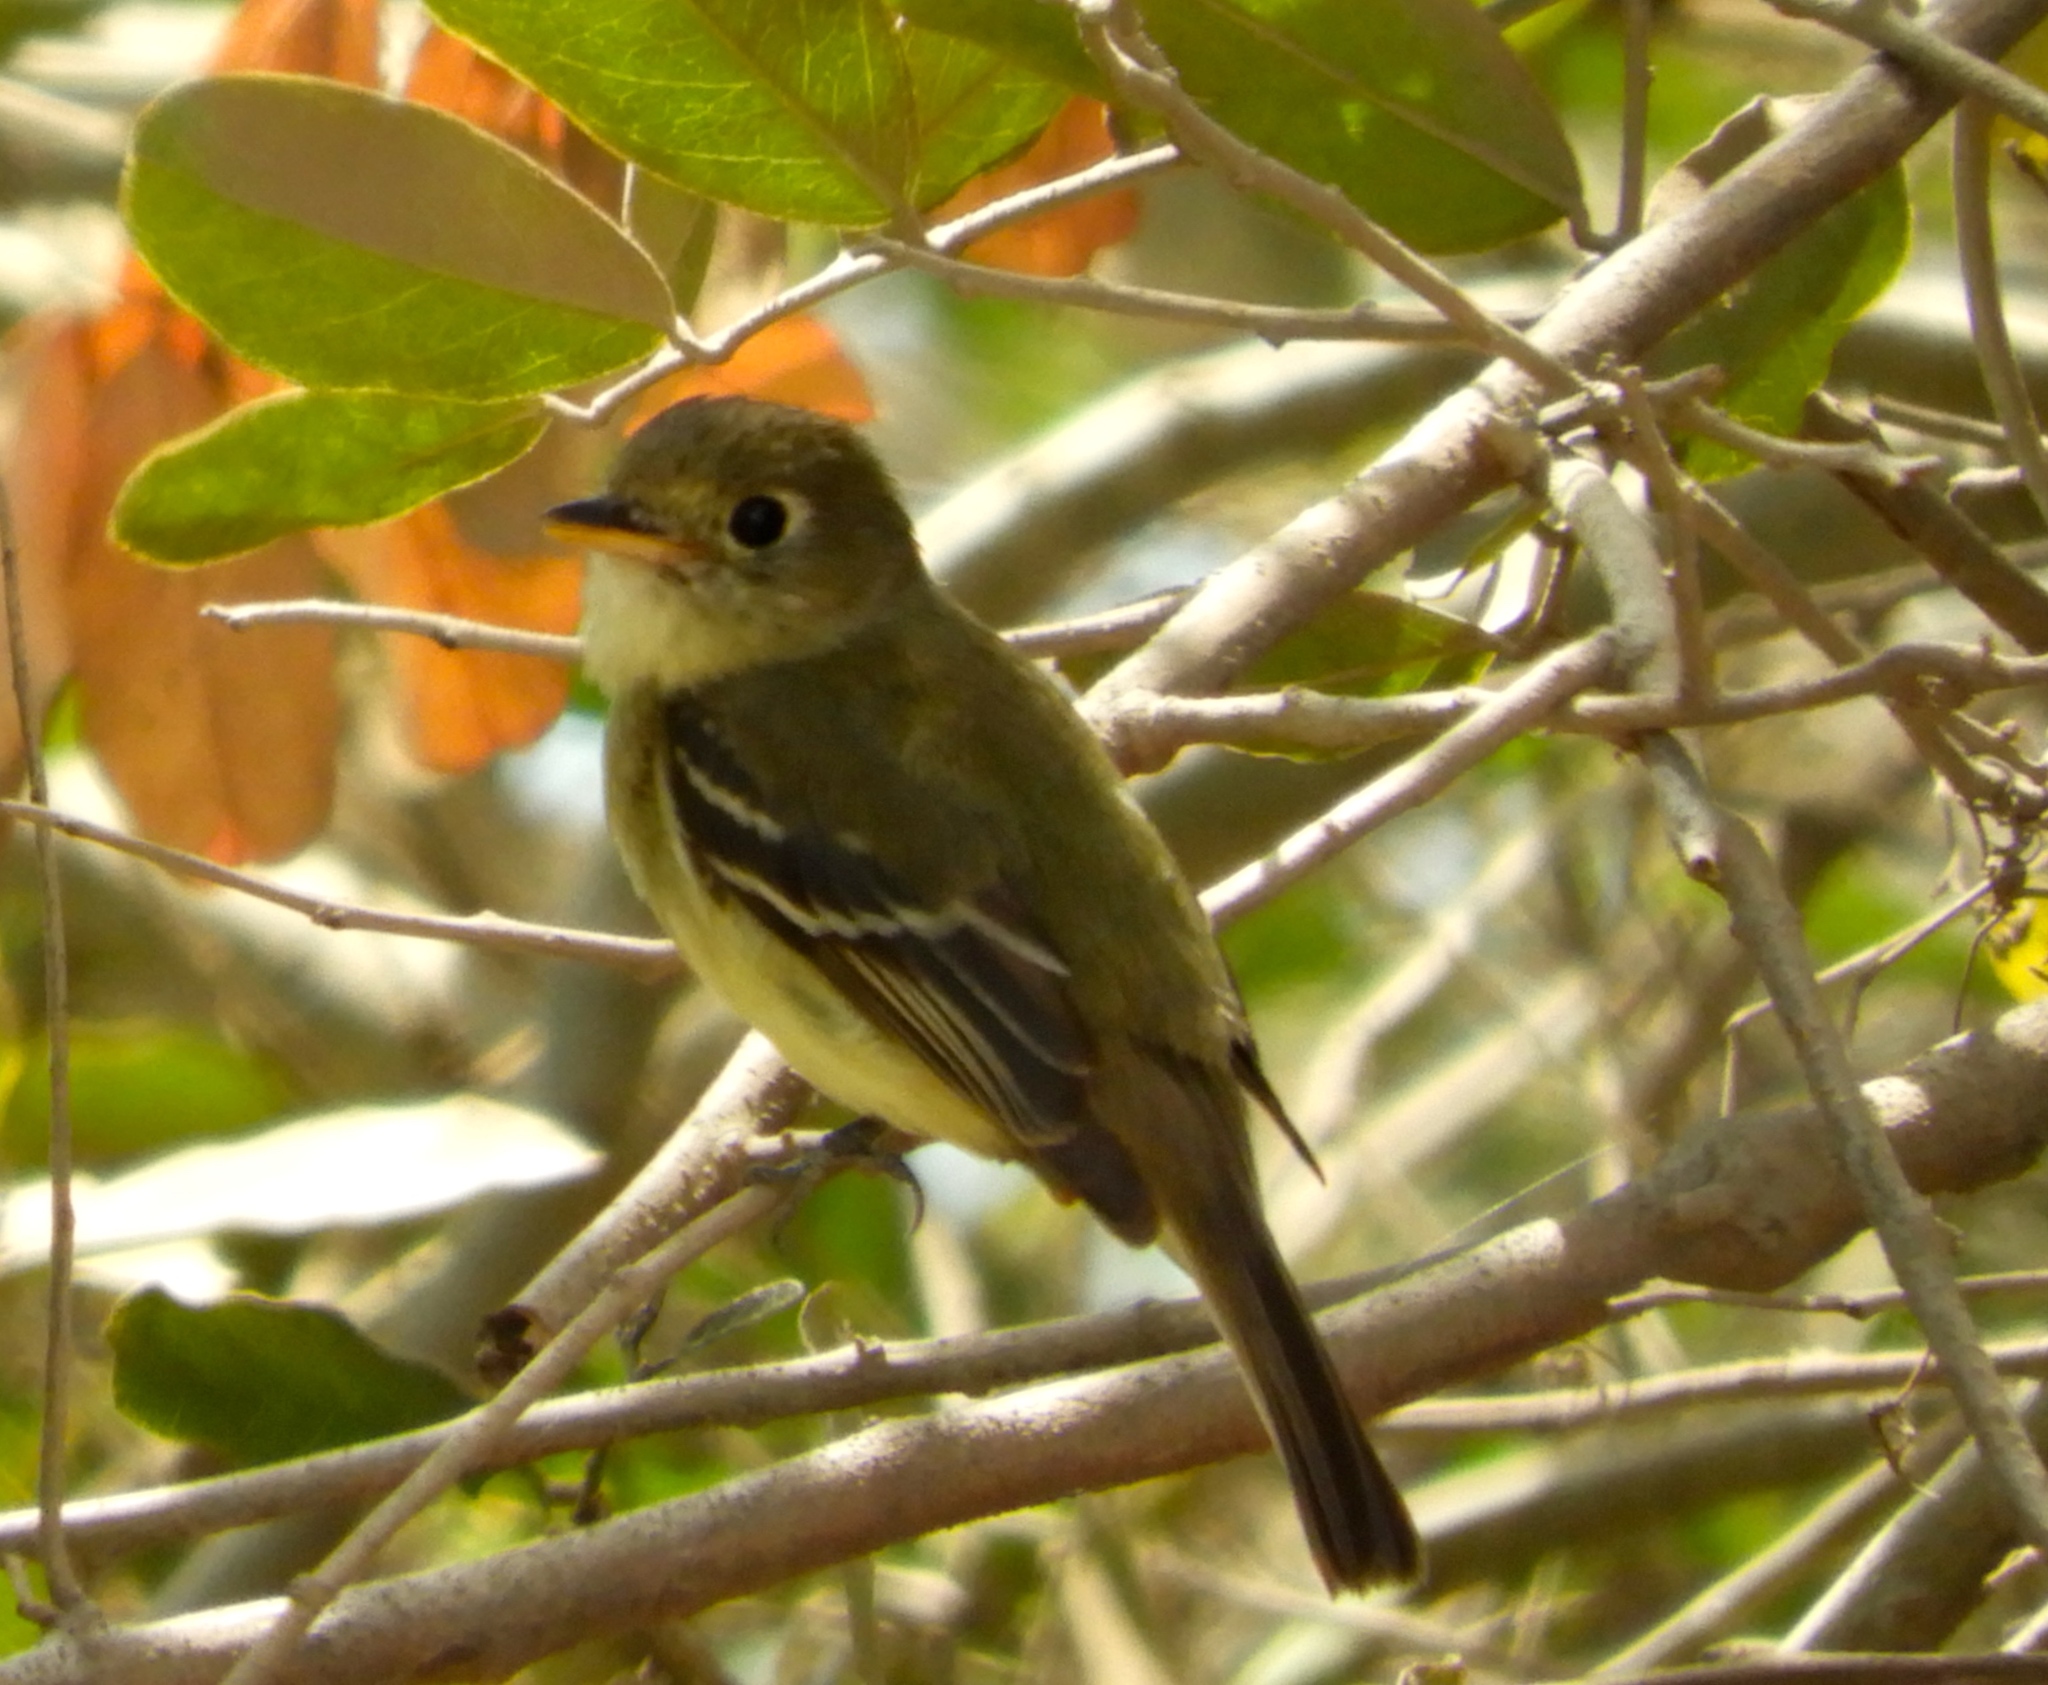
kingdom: Animalia
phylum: Chordata
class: Aves
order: Passeriformes
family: Tyrannidae
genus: Empidonax
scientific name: Empidonax
